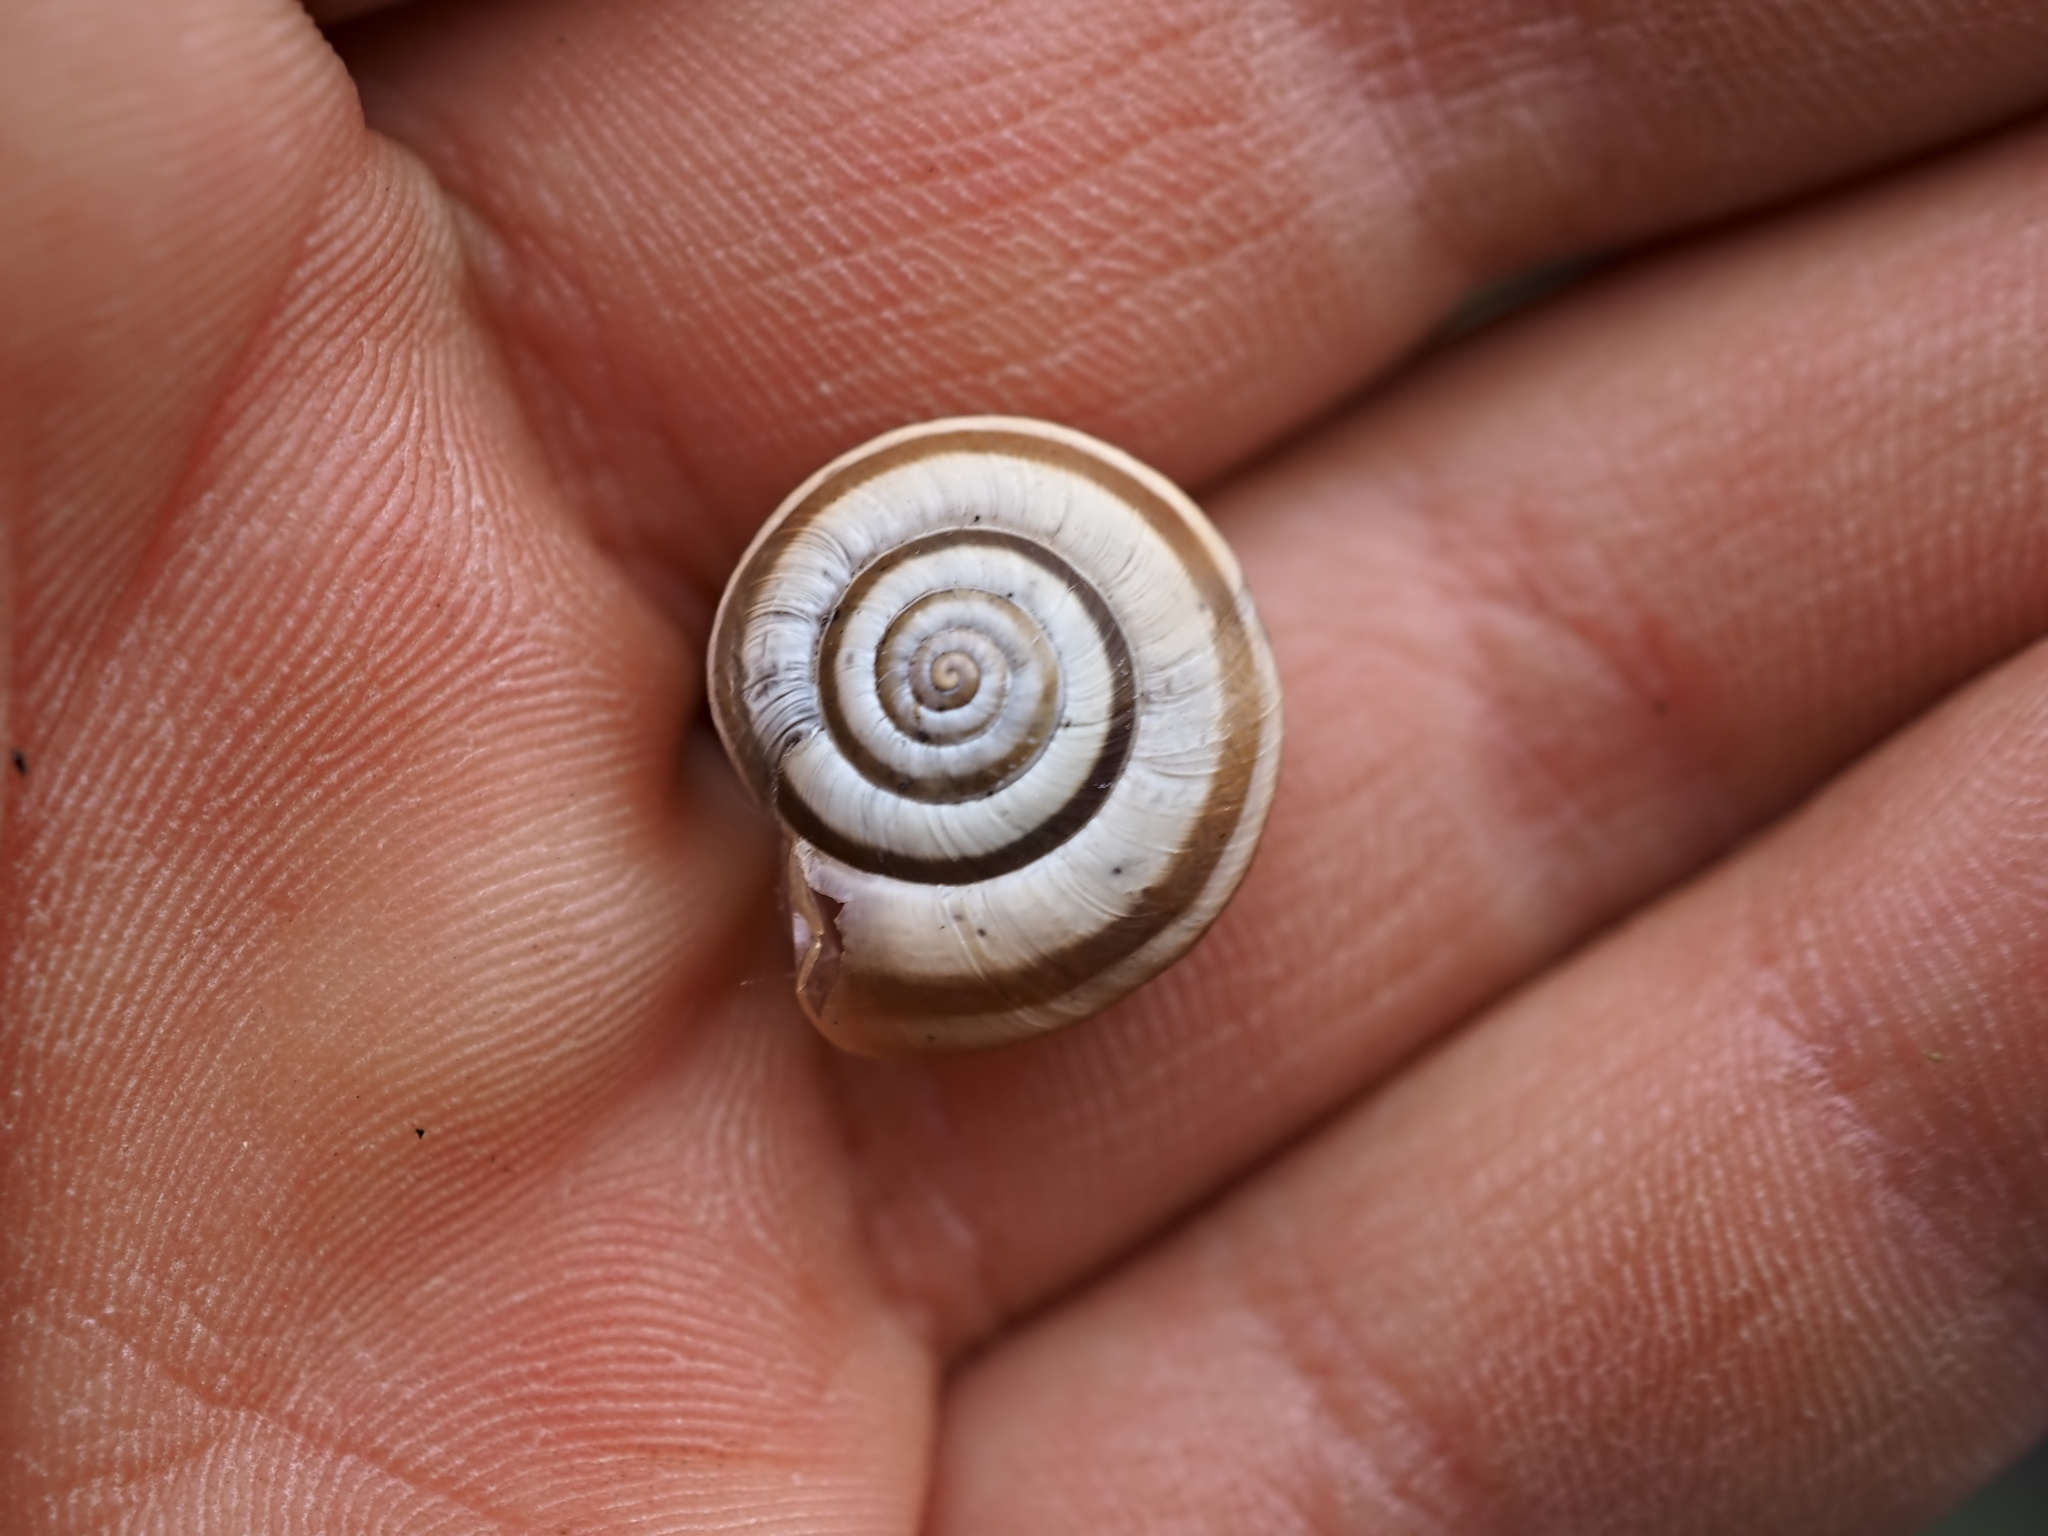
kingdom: Animalia
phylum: Mollusca
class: Gastropoda
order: Stylommatophora
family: Geomitridae
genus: Helicella
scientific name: Helicella itala
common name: Heath snail
